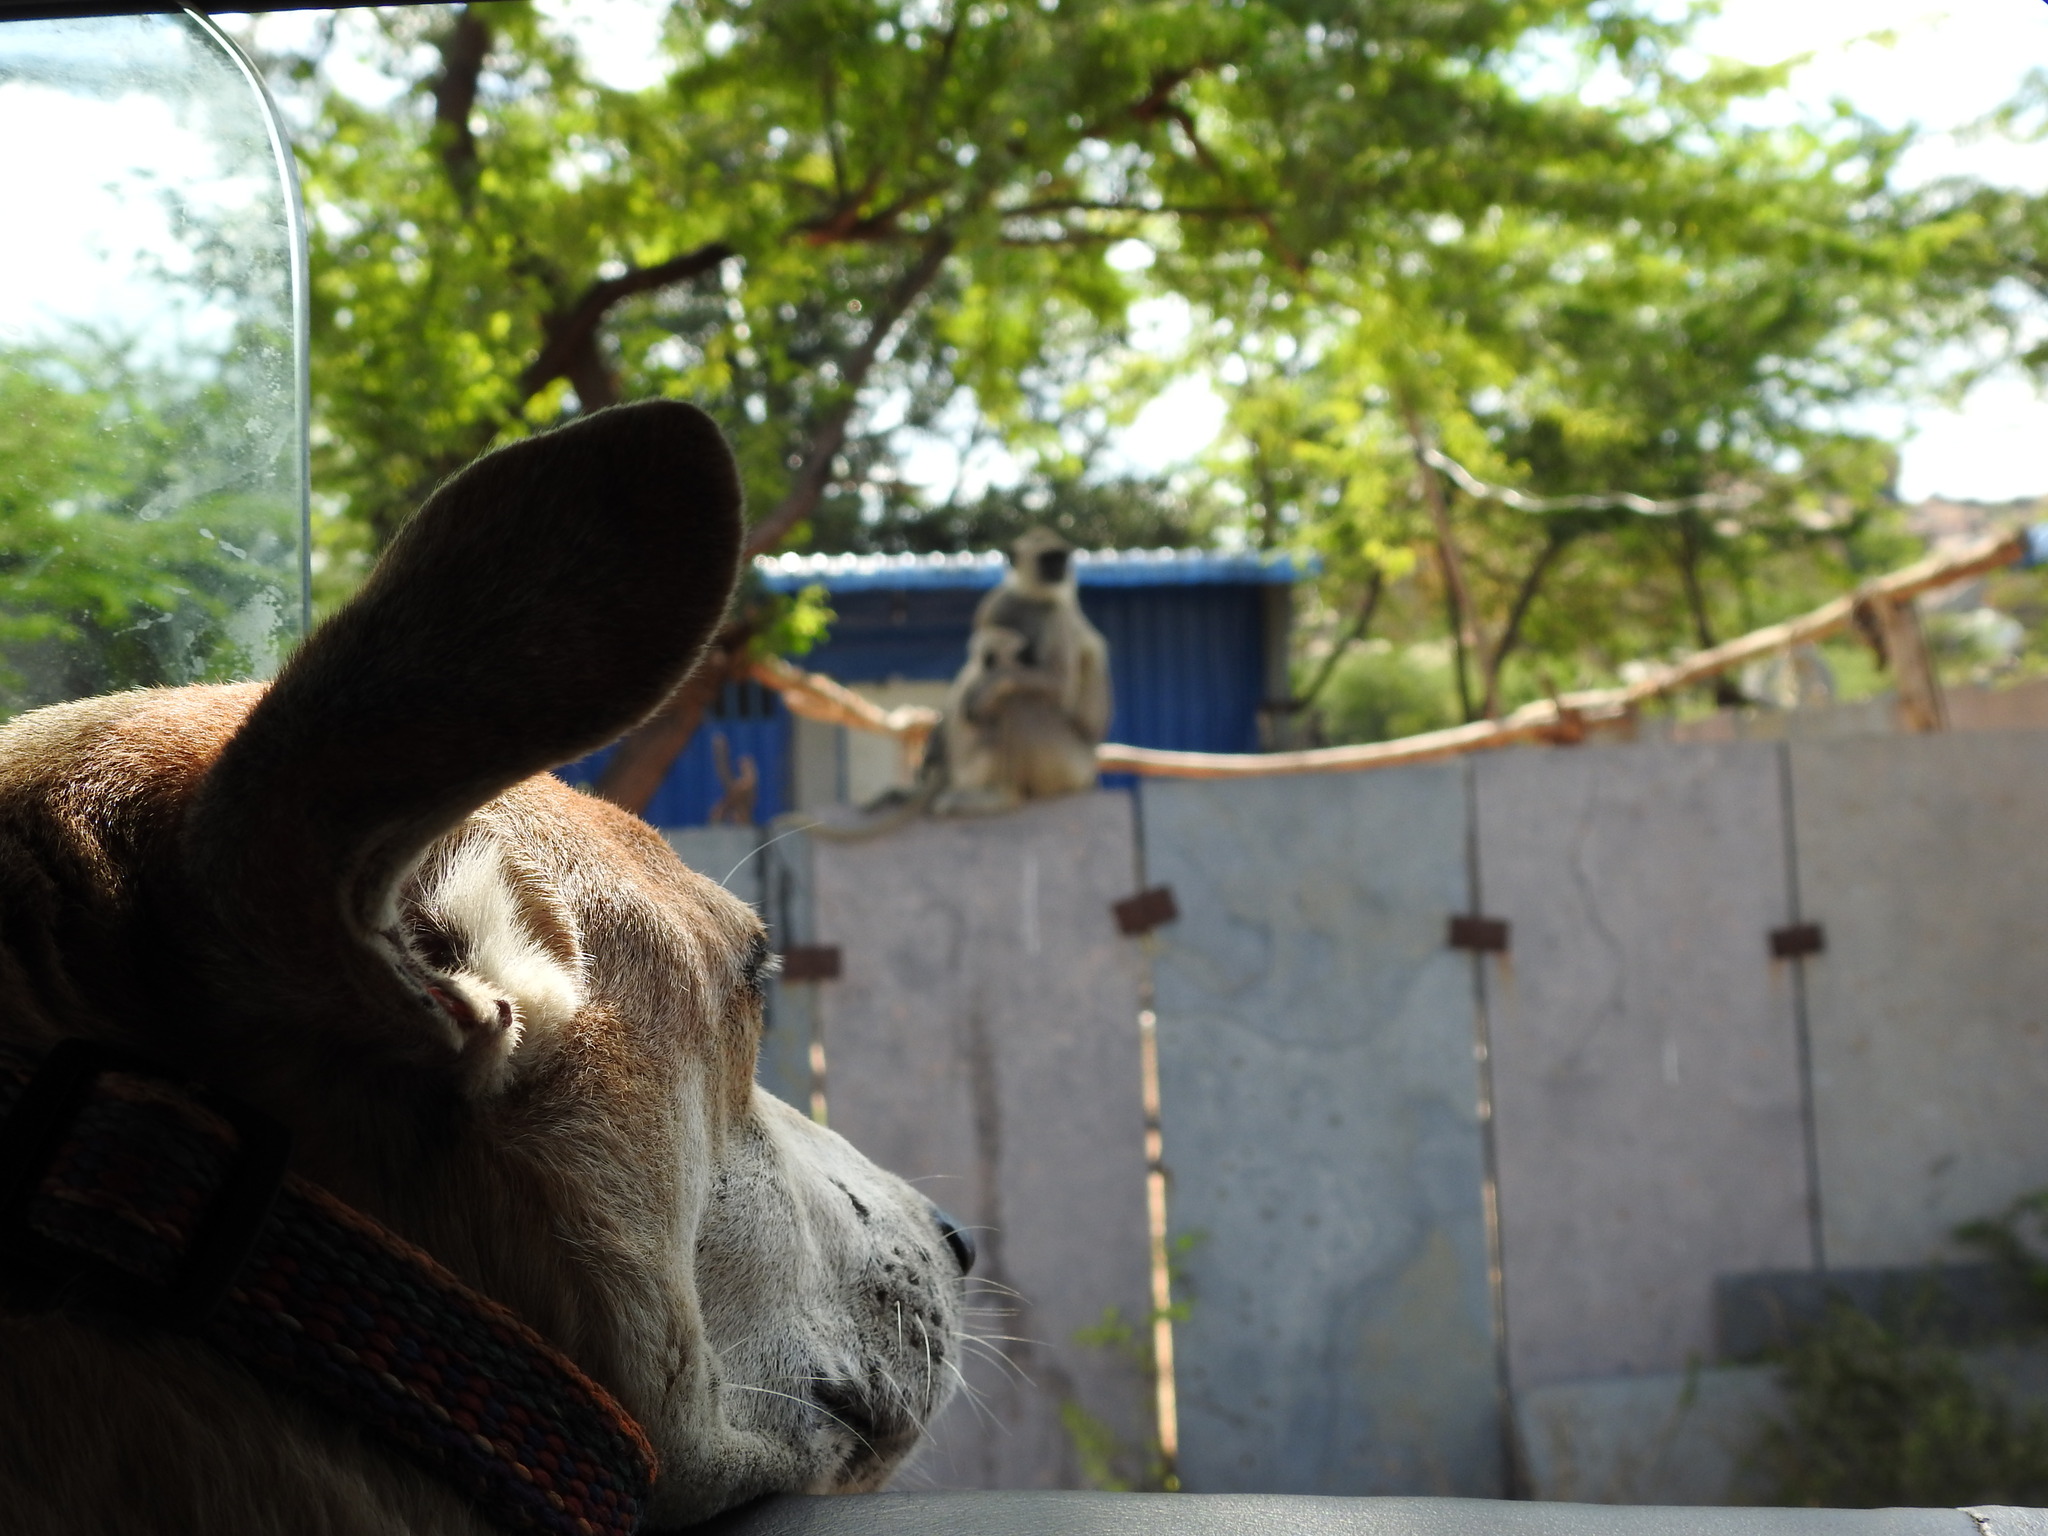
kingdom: Animalia
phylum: Chordata
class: Mammalia
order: Primates
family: Cercopithecidae
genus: Semnopithecus
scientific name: Semnopithecus priam
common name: Tufted gray langur
